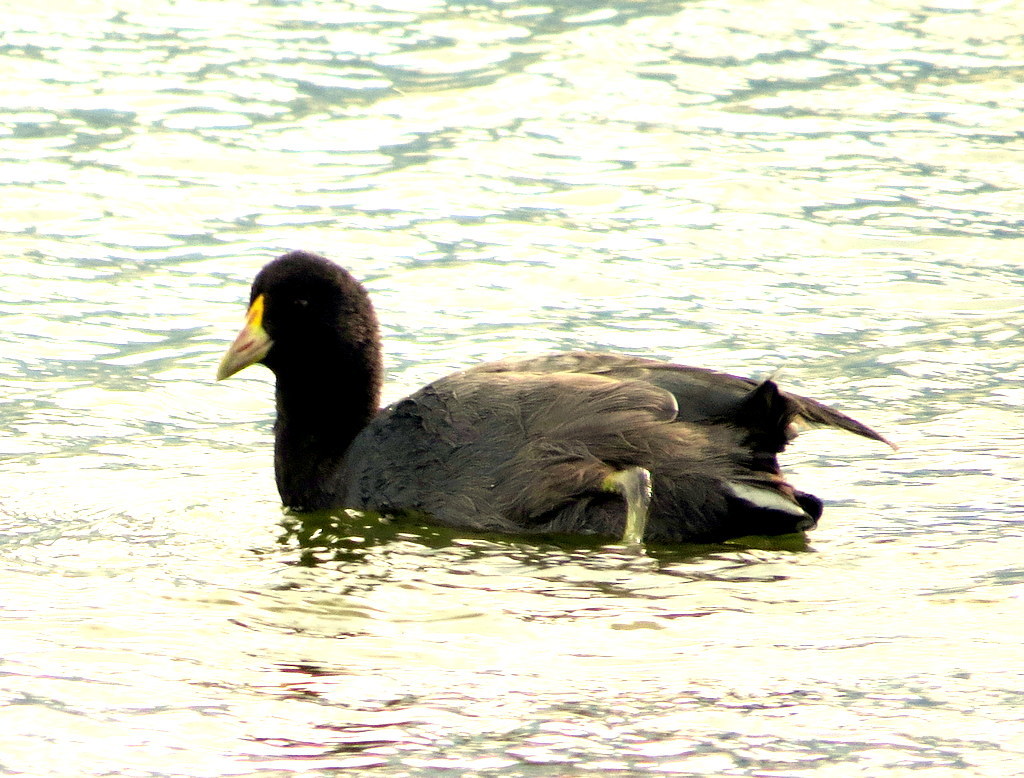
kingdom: Animalia
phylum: Chordata
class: Aves
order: Gruiformes
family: Rallidae
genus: Fulica
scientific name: Fulica leucoptera
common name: White-winged coot
